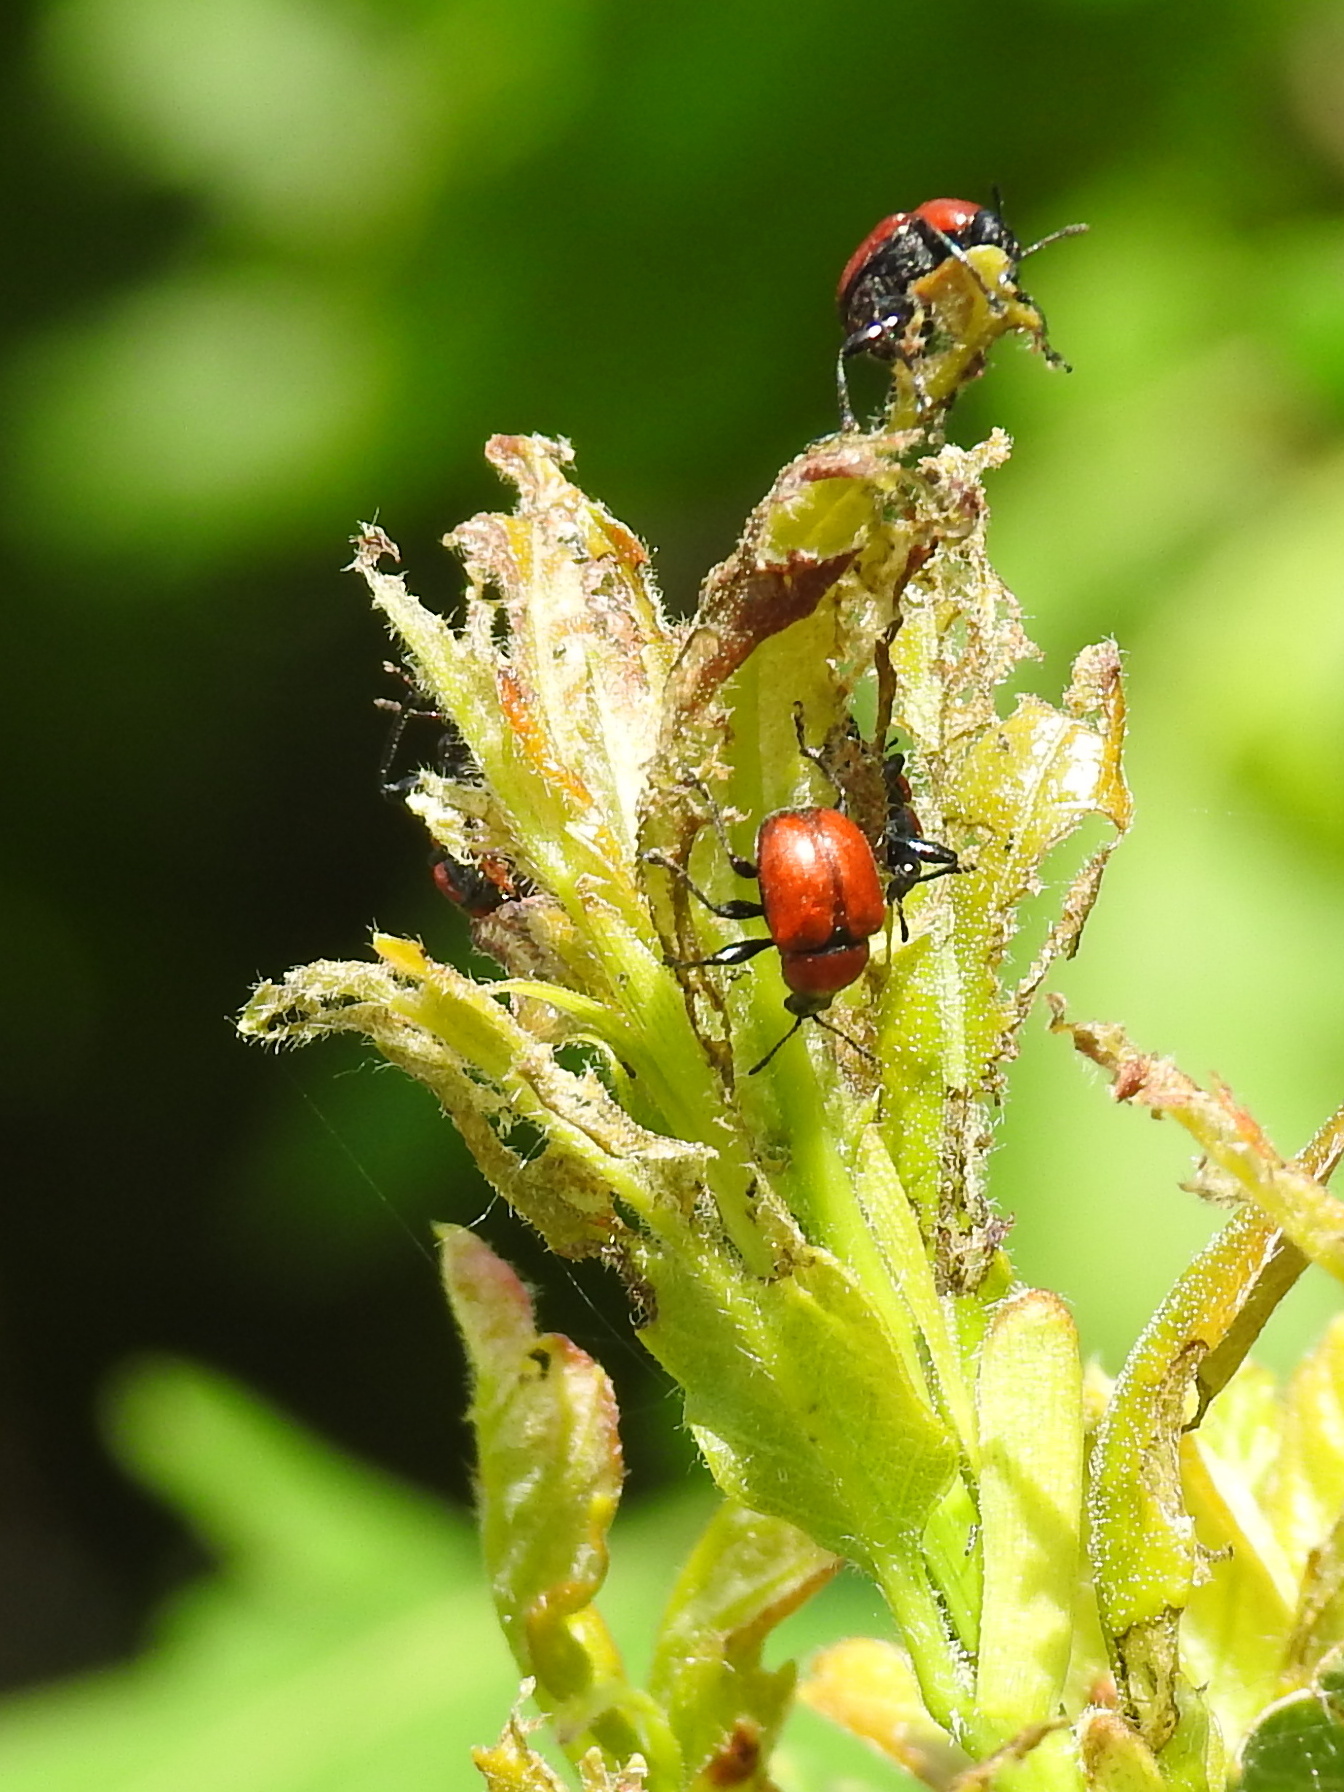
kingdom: Animalia
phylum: Arthropoda
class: Insecta
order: Coleoptera
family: Attelabidae
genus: Attelabus
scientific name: Attelabus nitens
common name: Oak leaf-roller
